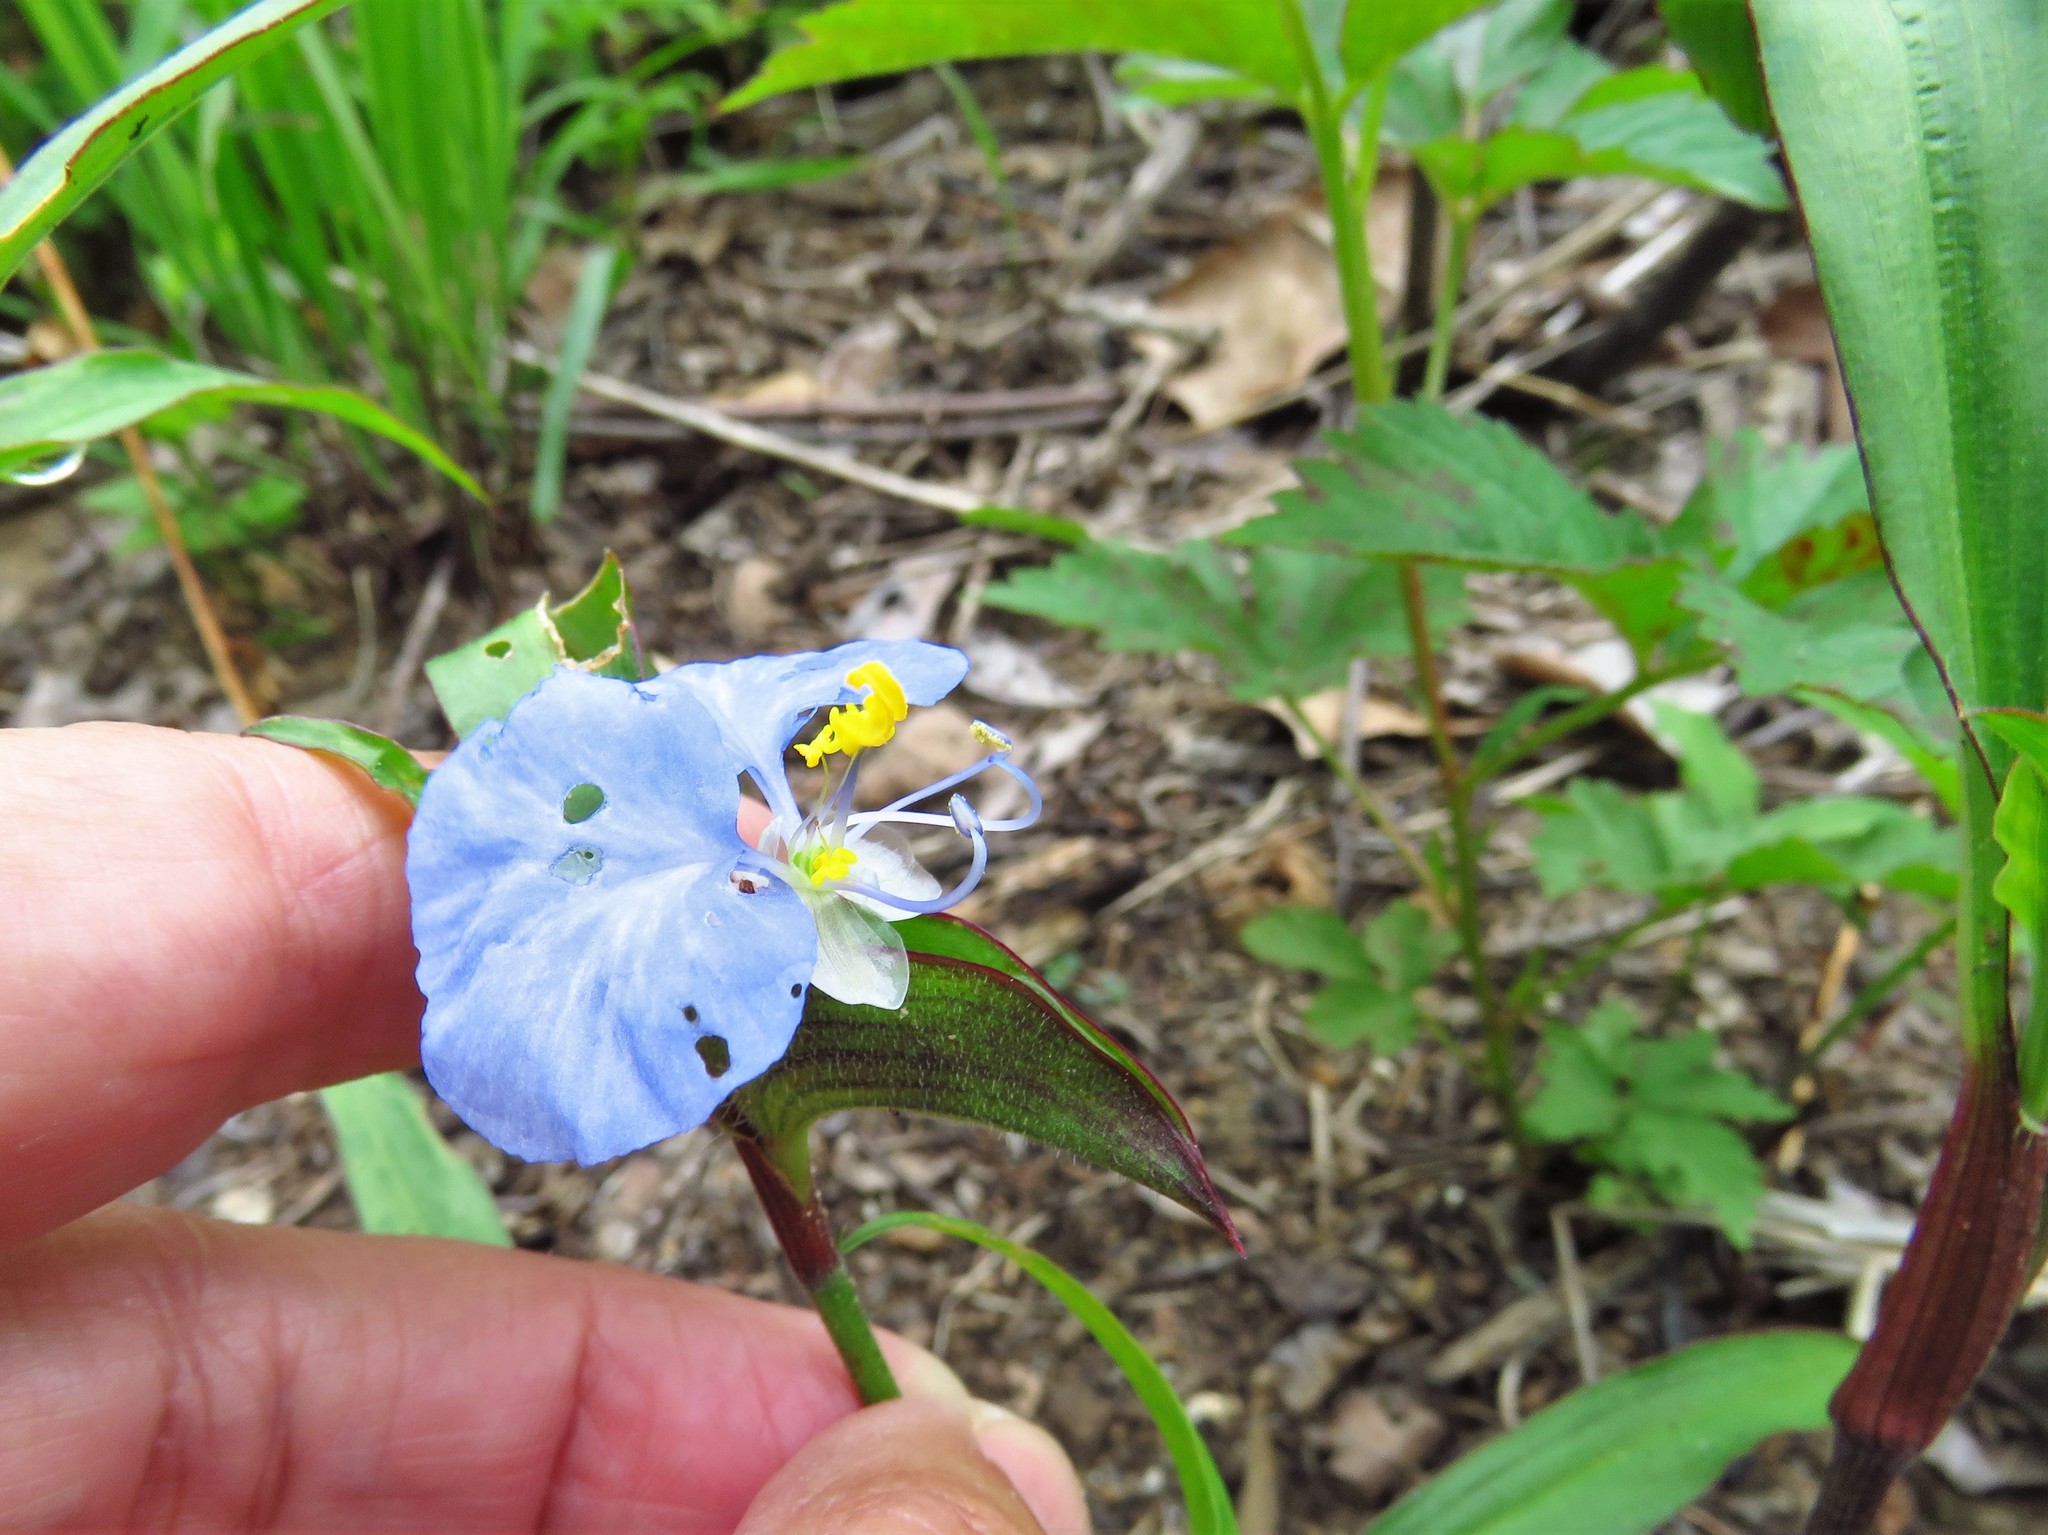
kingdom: Plantae
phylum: Tracheophyta
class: Liliopsida
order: Commelinales
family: Commelinaceae
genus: Commelina
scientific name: Commelina erecta
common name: Blousel blommetjie
